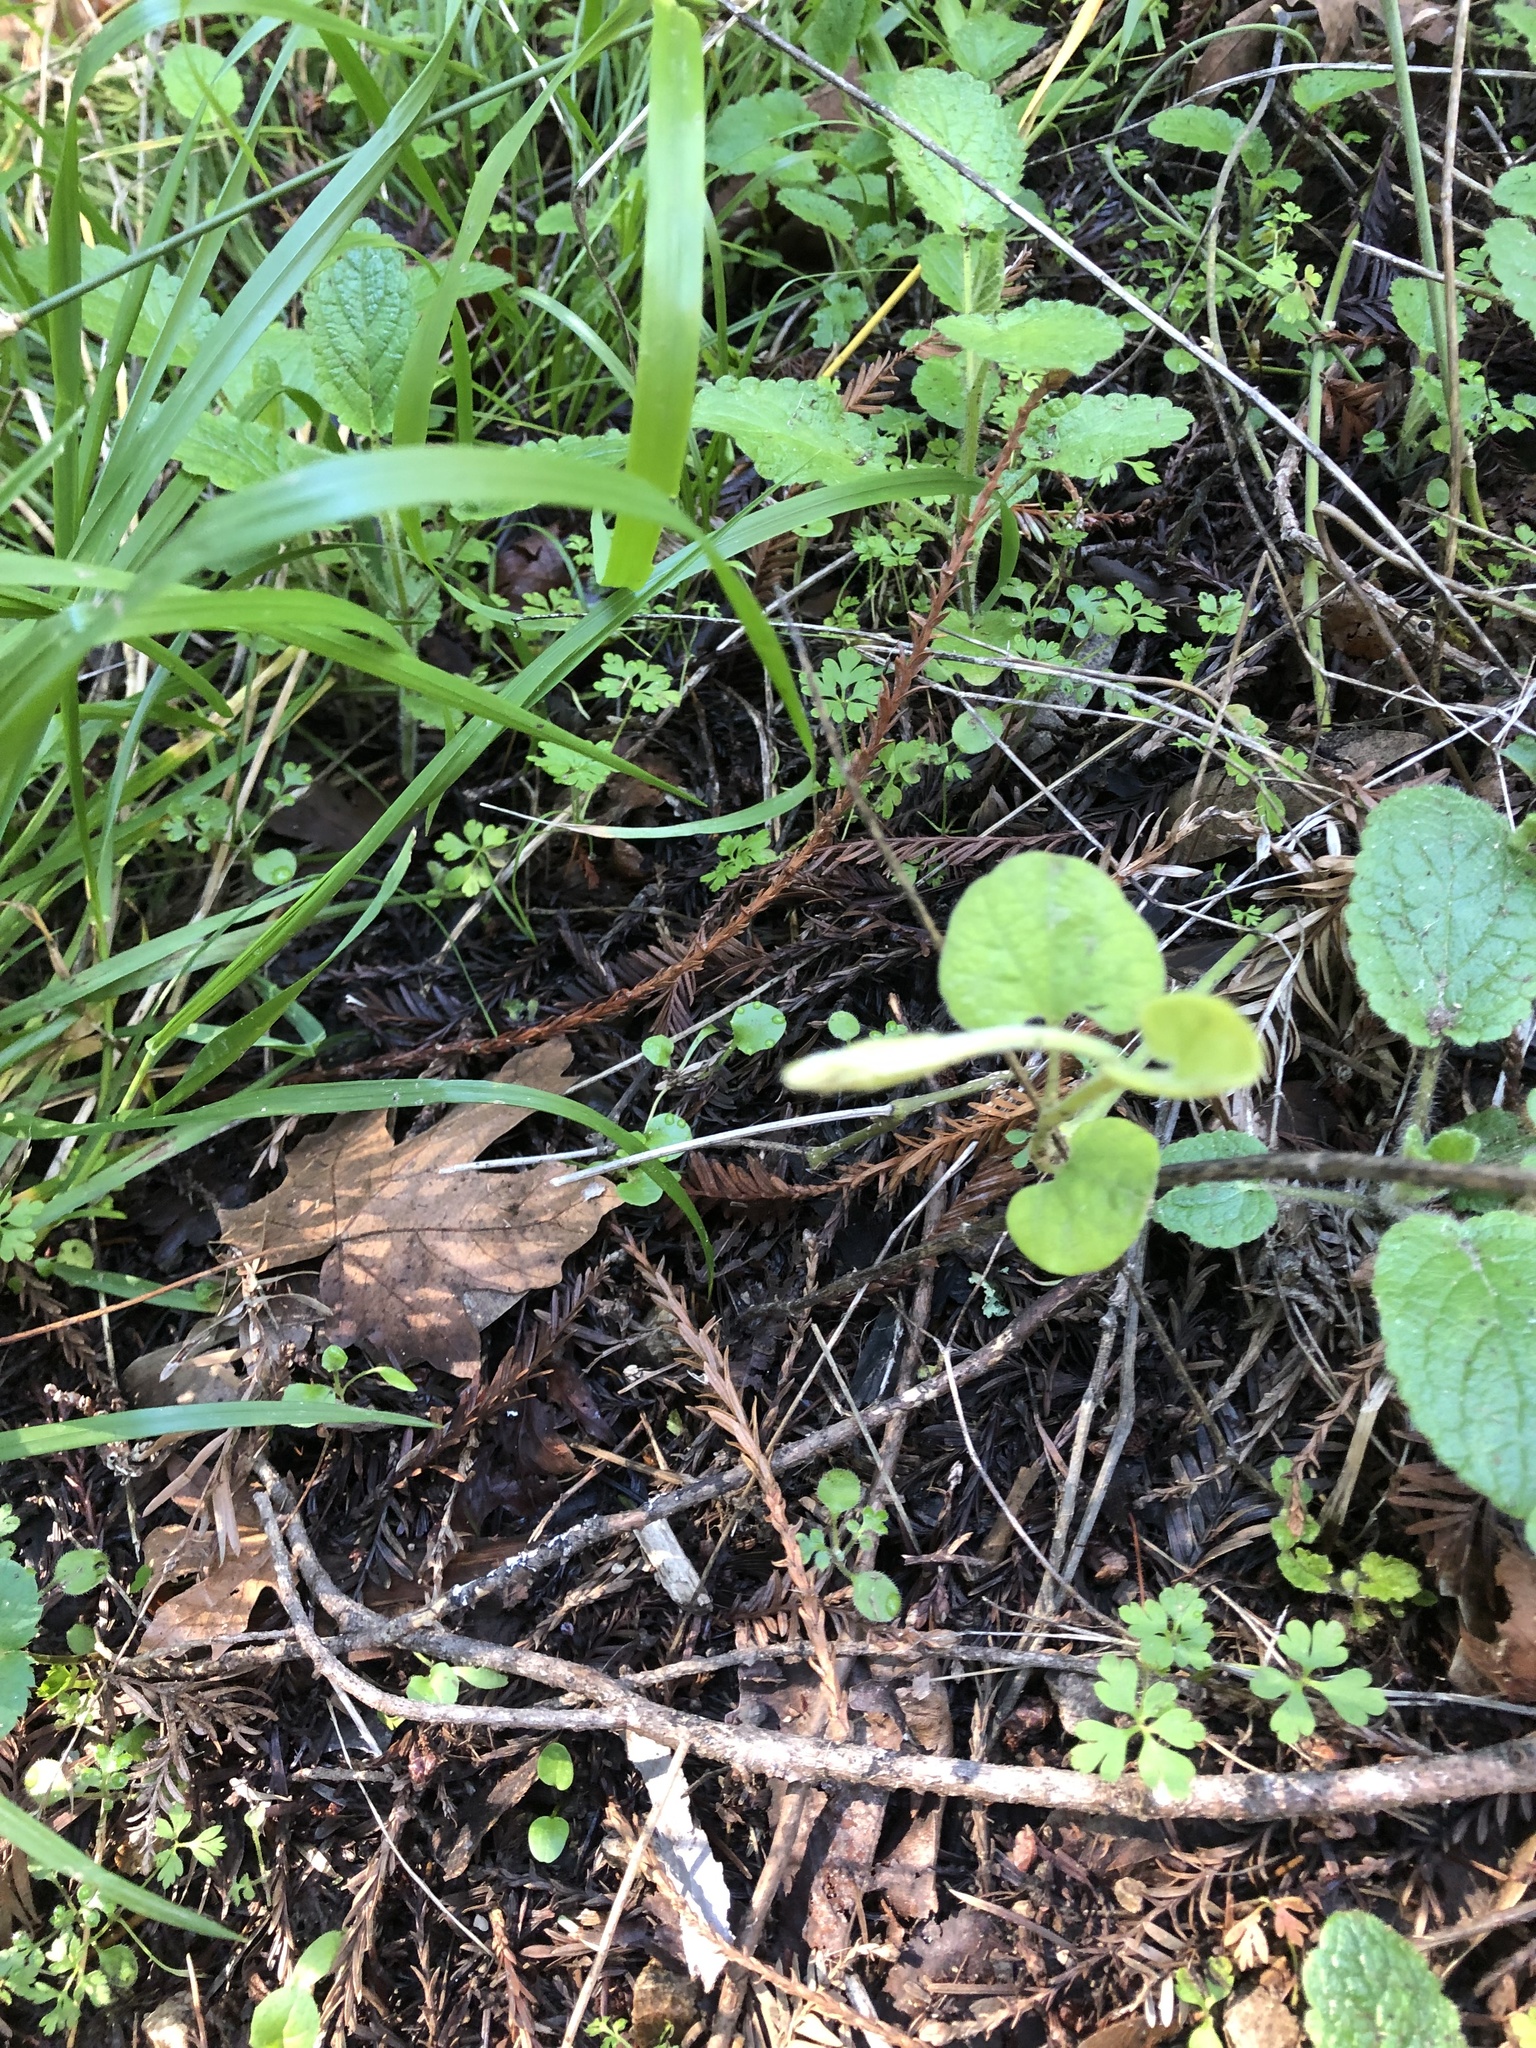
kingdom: Plantae
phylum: Tracheophyta
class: Magnoliopsida
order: Piperales
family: Aristolochiaceae
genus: Isotrema
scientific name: Isotrema californicum
